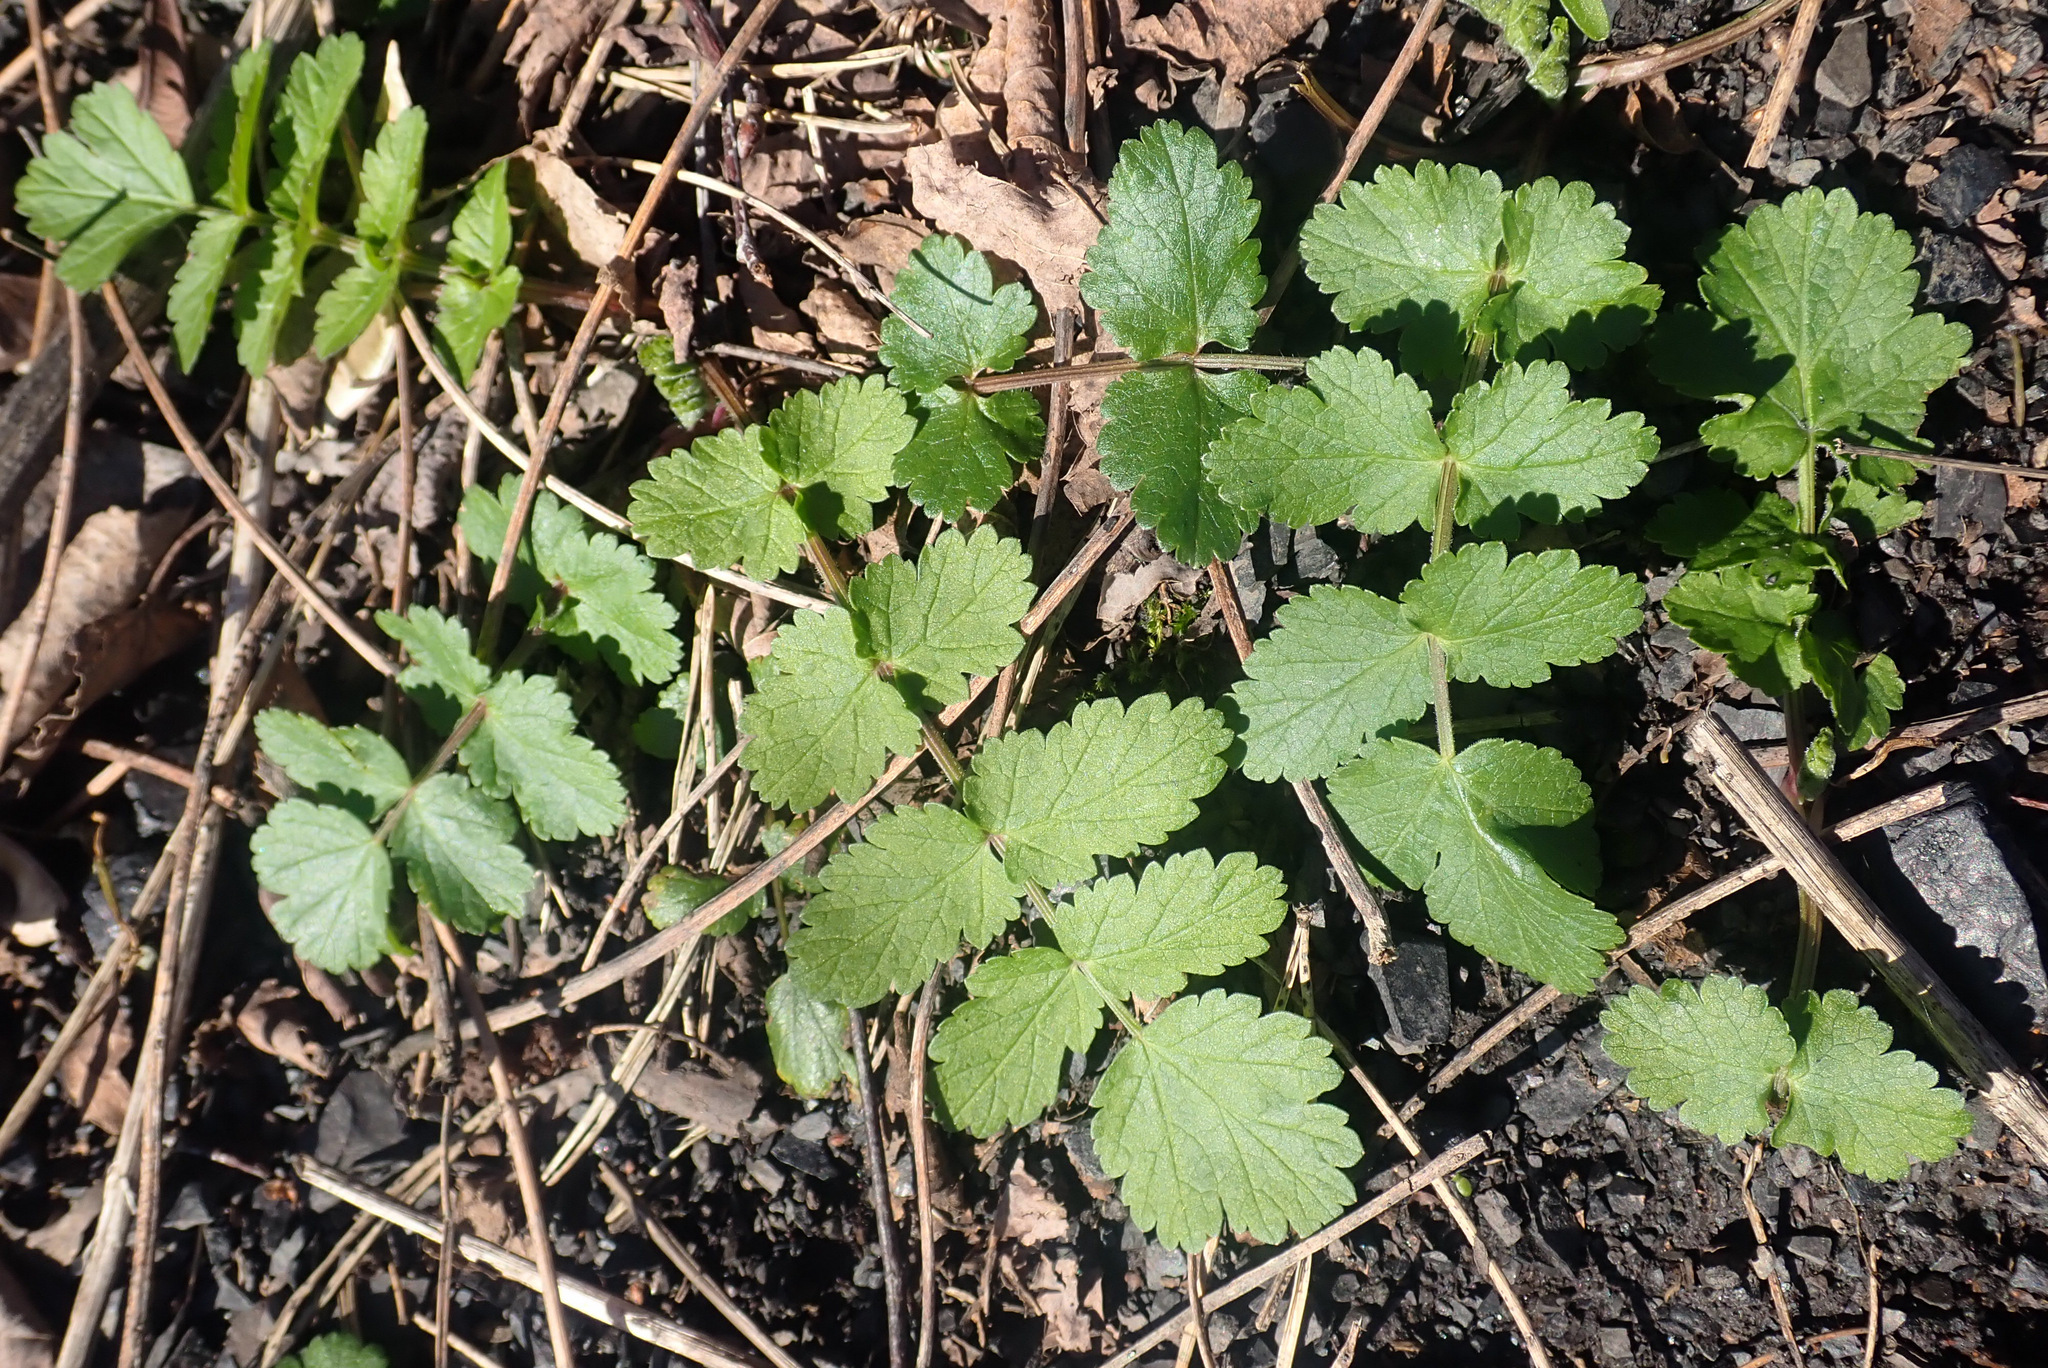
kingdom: Plantae
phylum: Tracheophyta
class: Magnoliopsida
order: Apiales
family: Apiaceae
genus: Pastinaca
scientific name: Pastinaca sativa
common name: Wild parsnip
